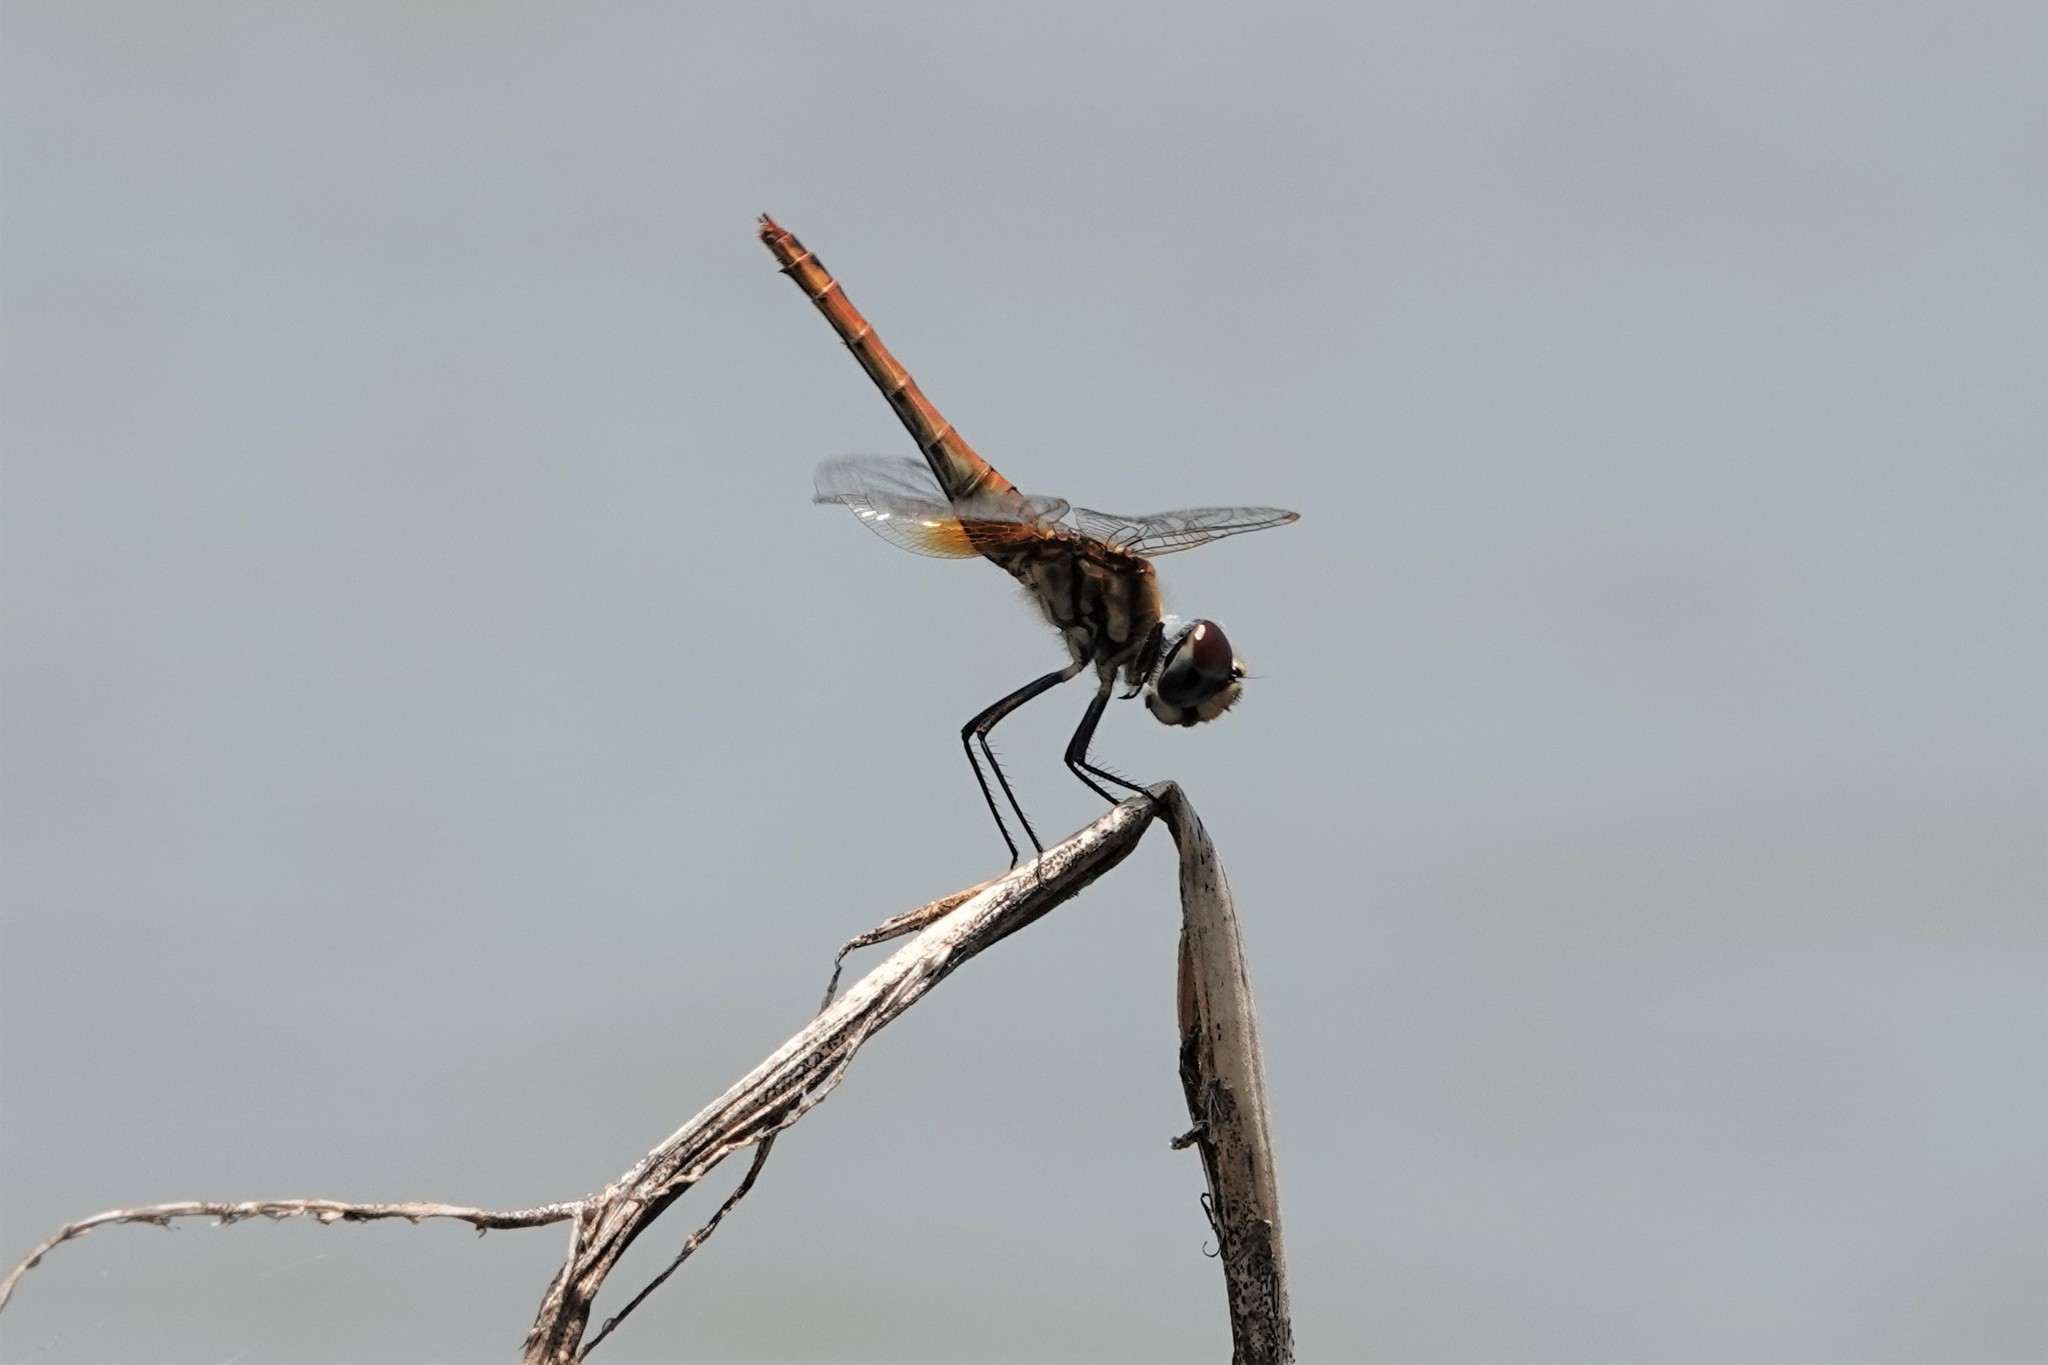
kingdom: Animalia
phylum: Arthropoda
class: Insecta
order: Odonata
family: Libellulidae
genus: Macrodiplax
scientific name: Macrodiplax cora
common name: Coastal glider
